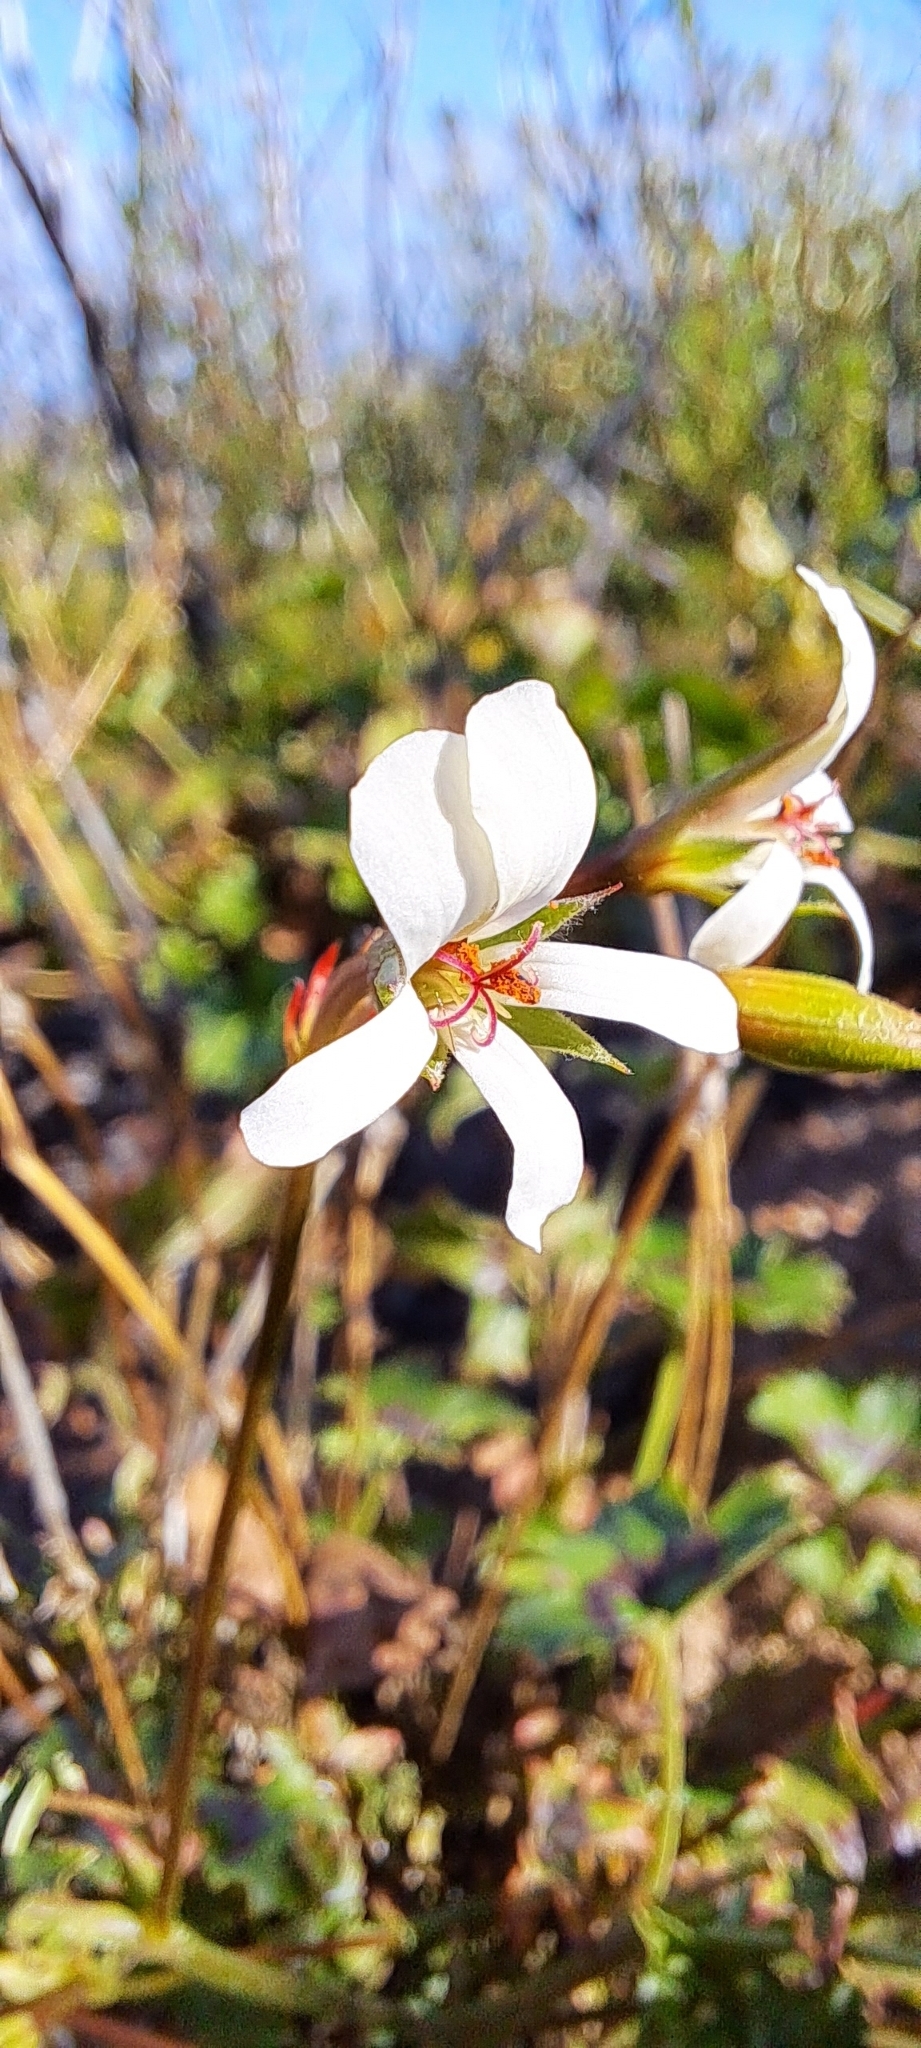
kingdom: Plantae
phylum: Tracheophyta
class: Magnoliopsida
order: Geraniales
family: Geraniaceae
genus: Pelargonium
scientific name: Pelargonium elongatum
